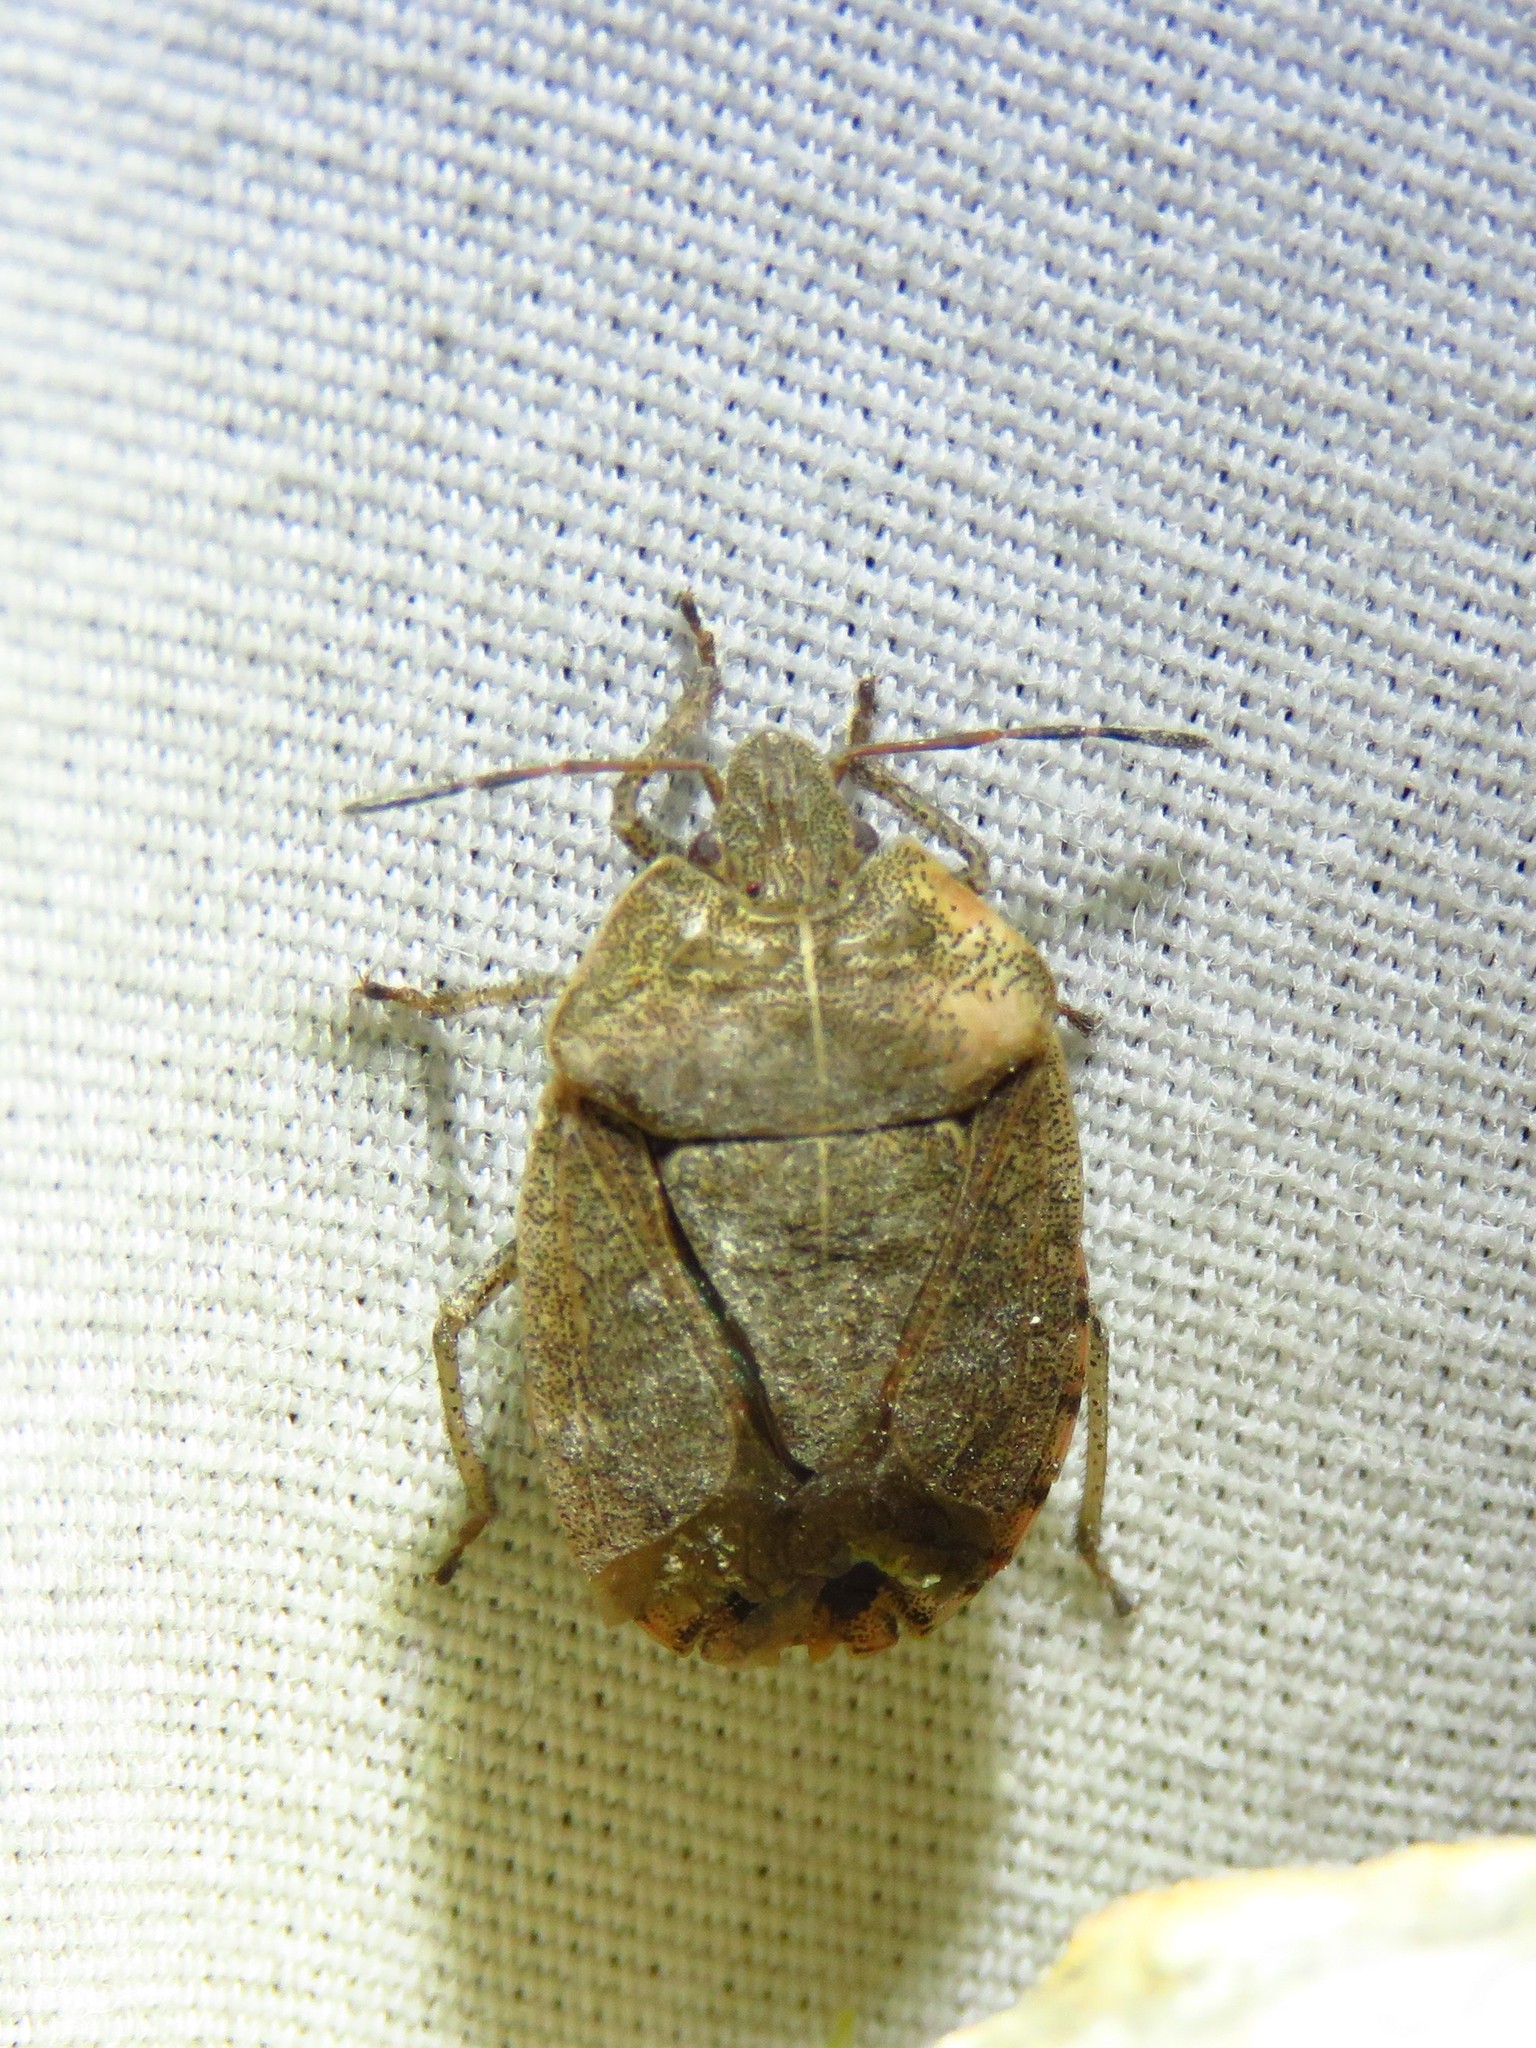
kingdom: Animalia
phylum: Arthropoda
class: Insecta
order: Hemiptera
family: Pentatomidae
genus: Menecles
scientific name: Menecles insertus
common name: Elf shoe stink bug
